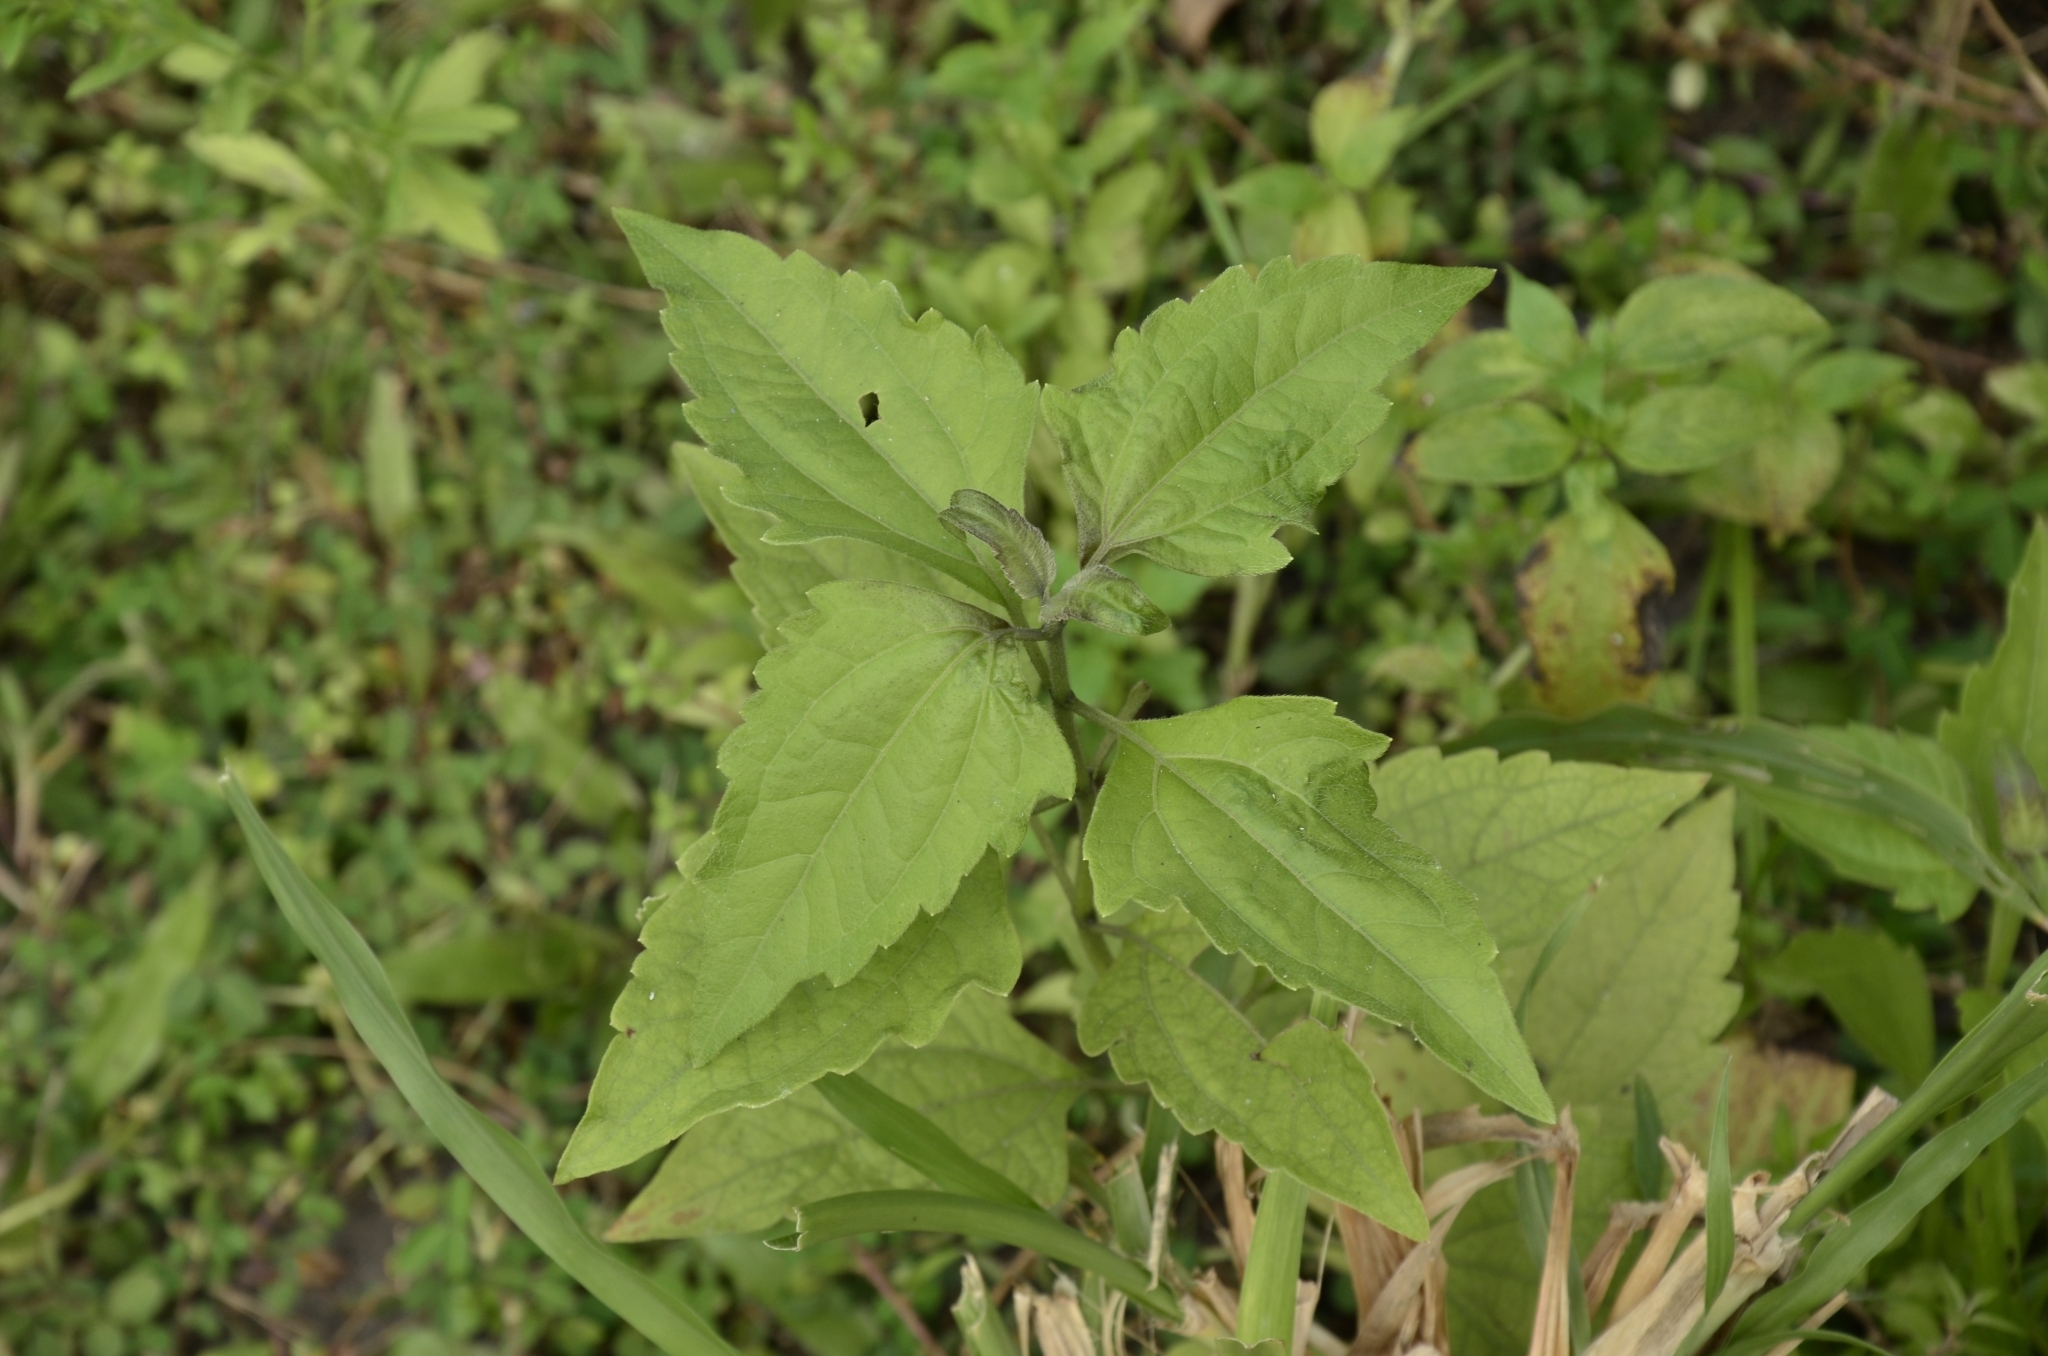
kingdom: Plantae
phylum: Tracheophyta
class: Magnoliopsida
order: Asterales
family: Asteraceae
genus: Chromolaena
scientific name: Chromolaena odorata
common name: Siamweed
